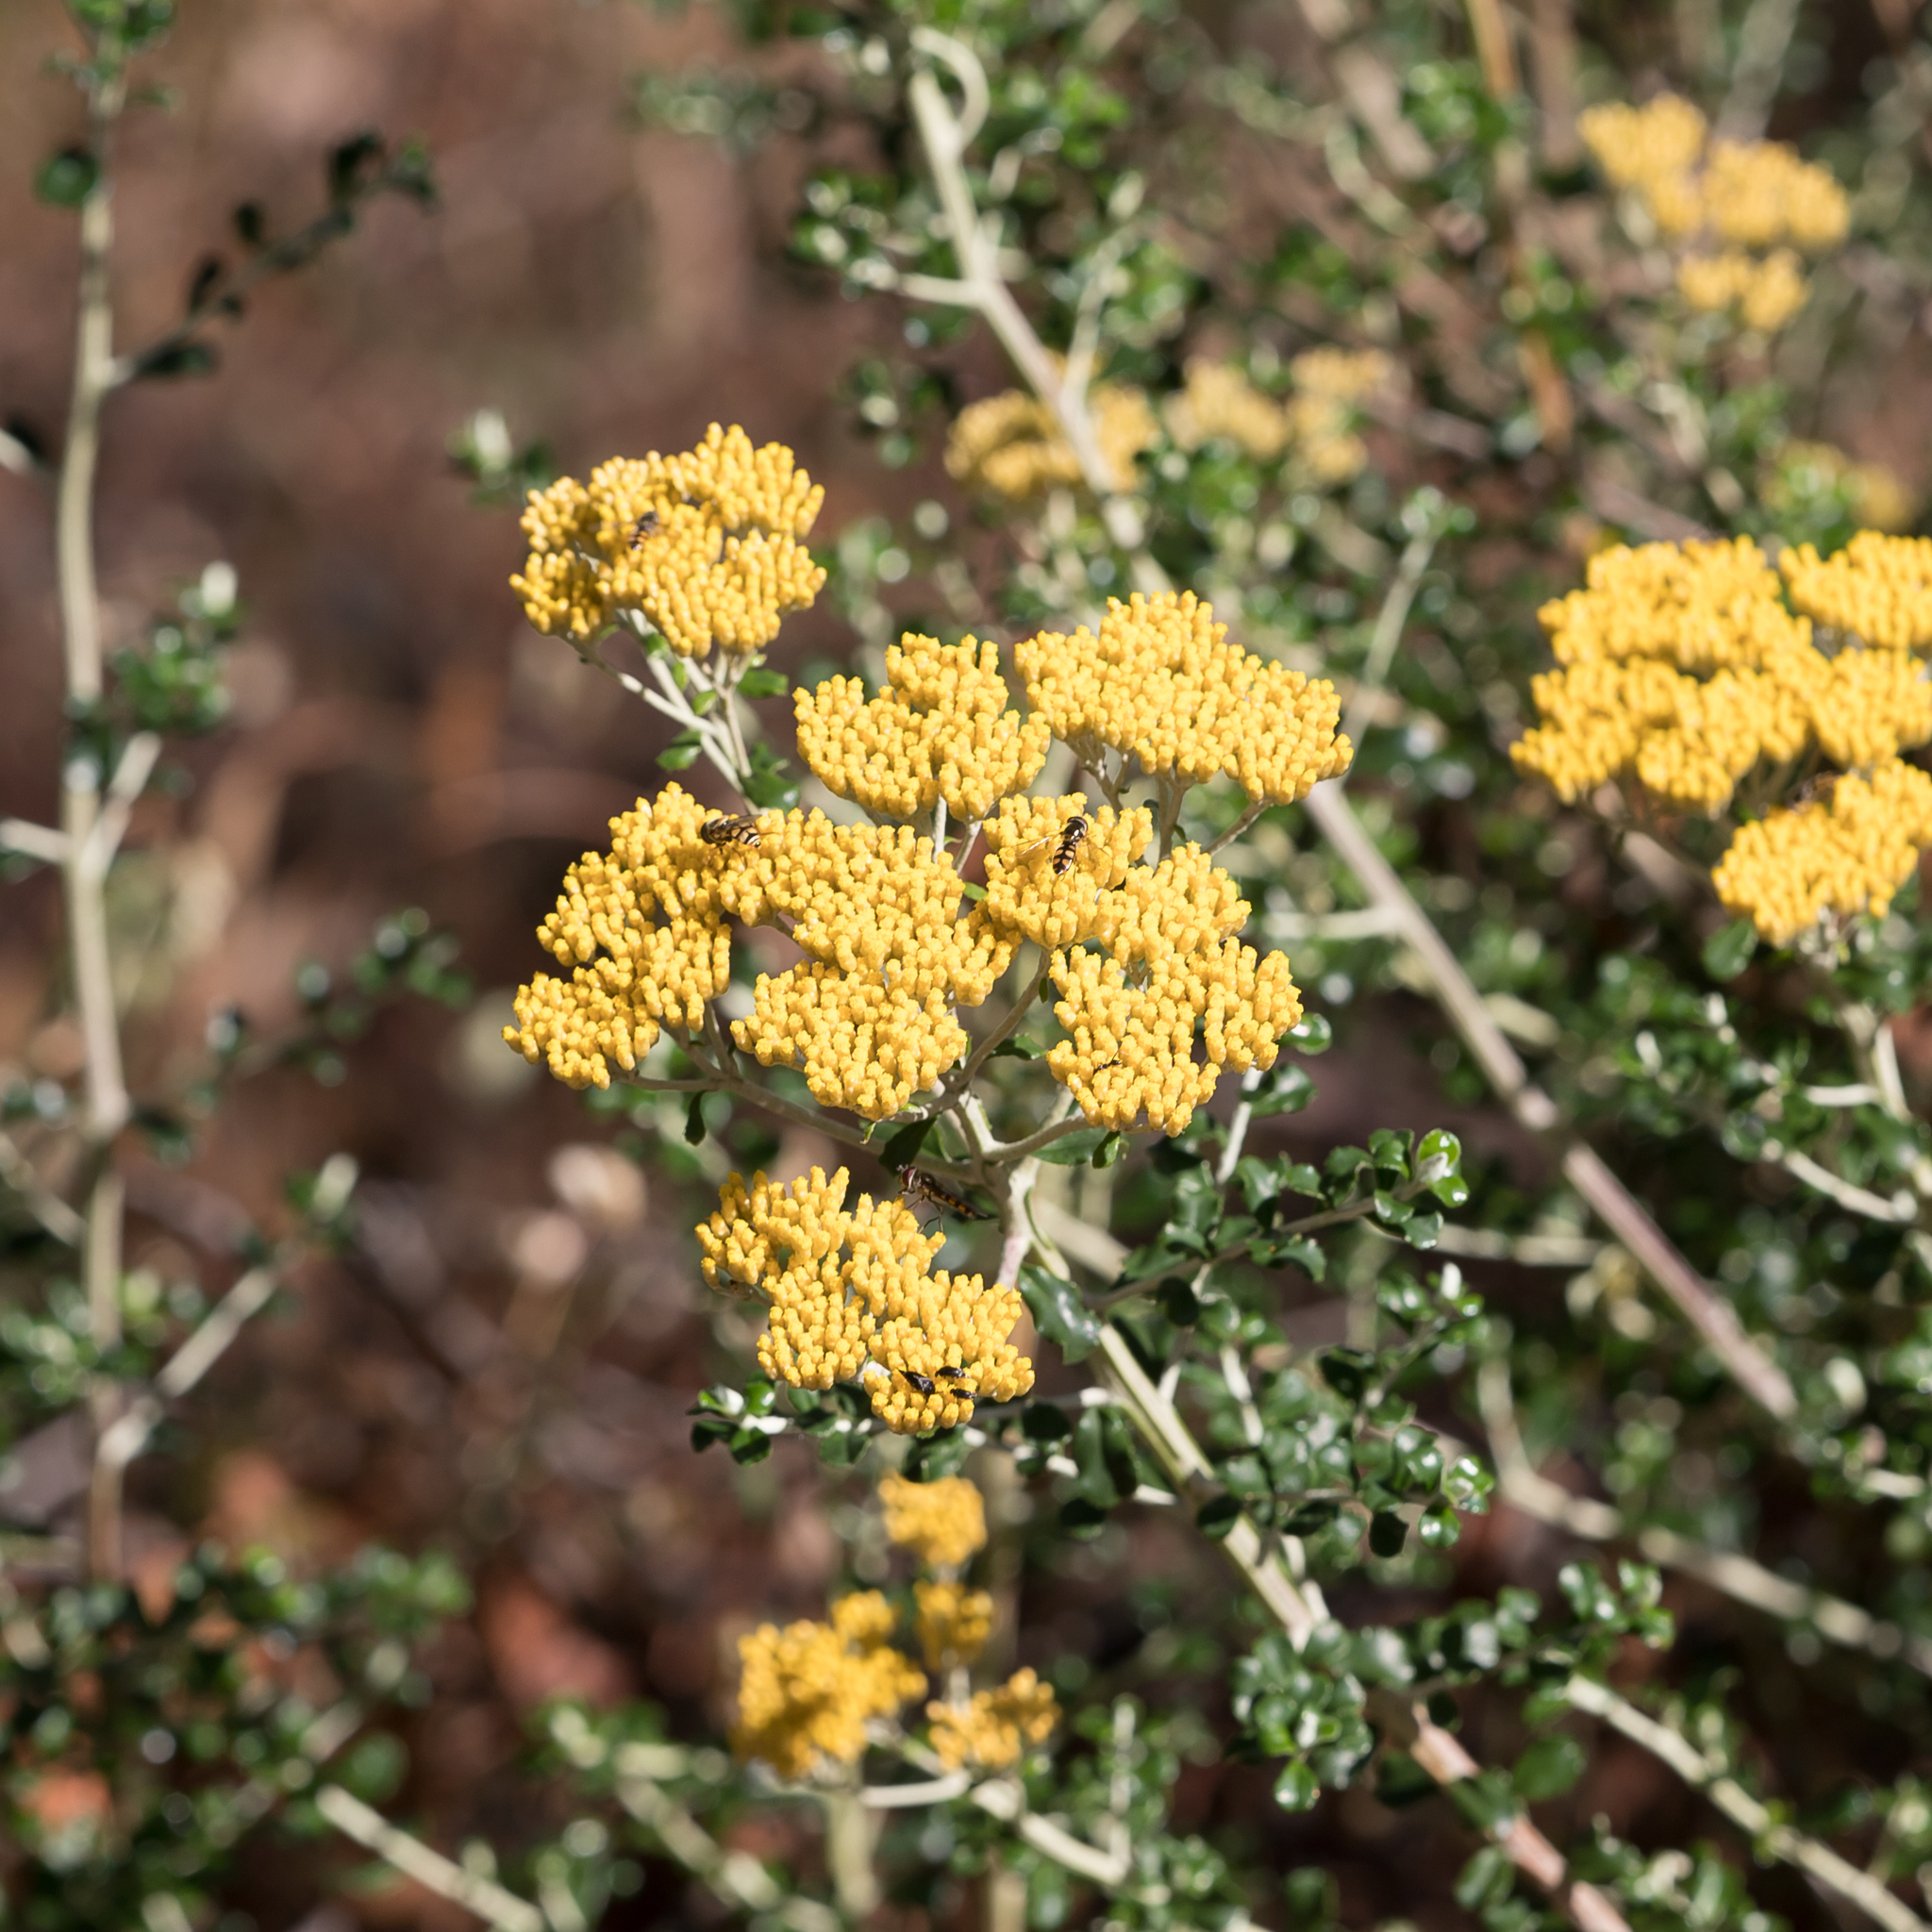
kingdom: Plantae
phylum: Tracheophyta
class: Magnoliopsida
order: Asterales
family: Asteraceae
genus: Ozothamnus
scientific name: Ozothamnus obcordatus
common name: Grey everlasting
